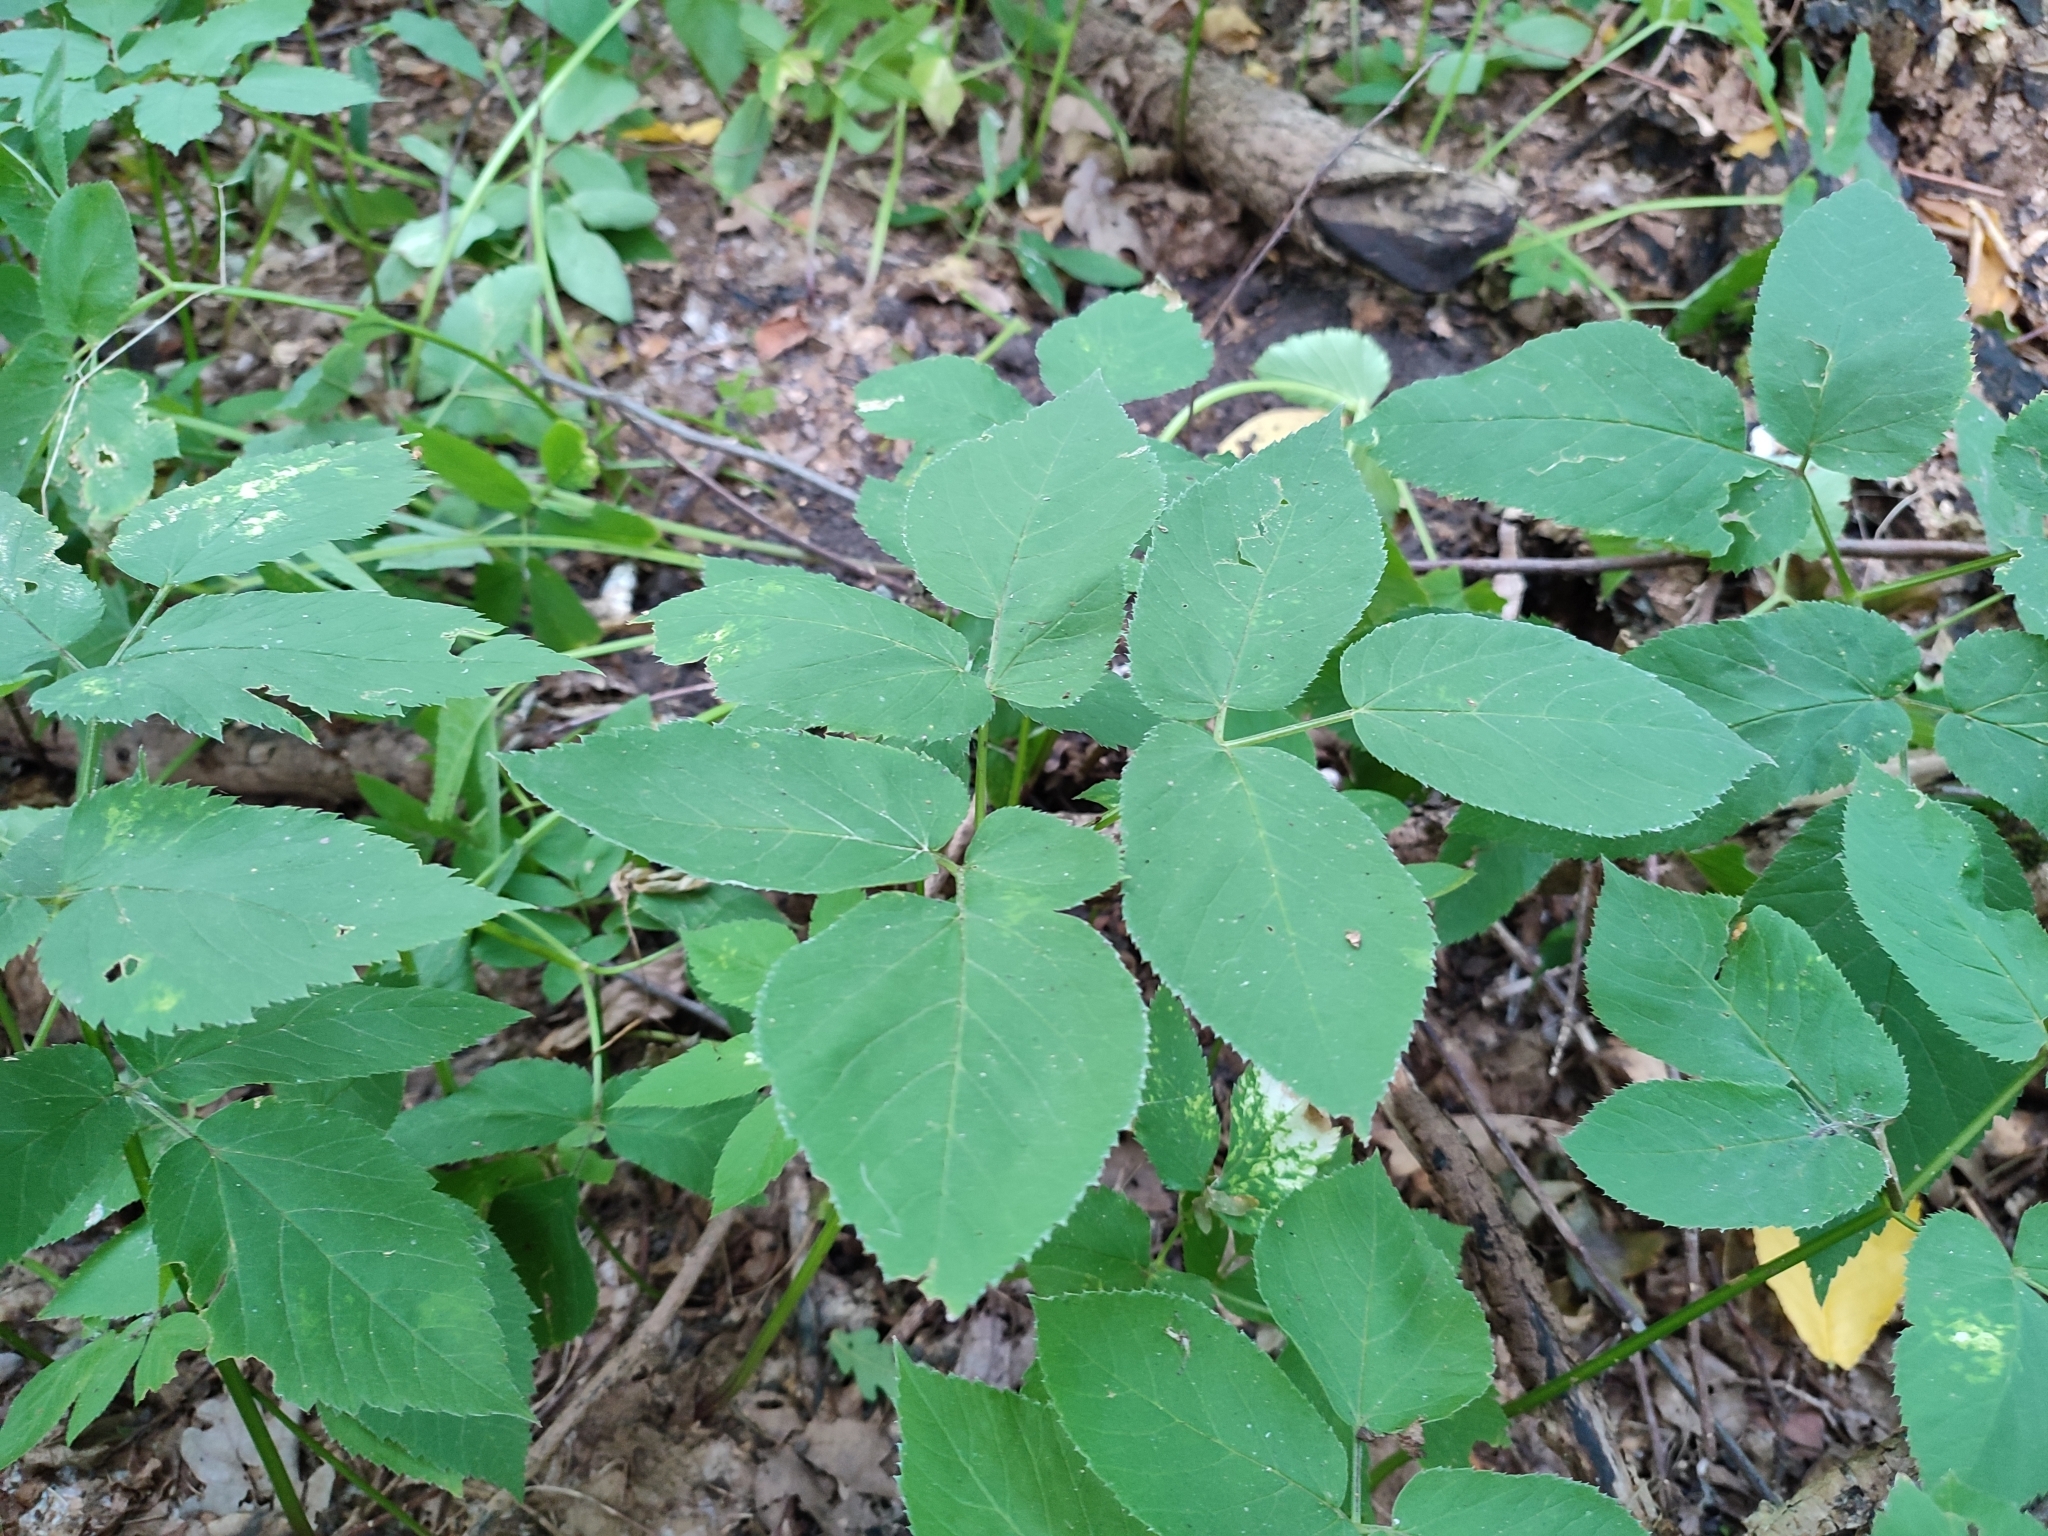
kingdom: Plantae
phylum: Tracheophyta
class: Magnoliopsida
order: Apiales
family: Apiaceae
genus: Aegopodium
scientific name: Aegopodium podagraria
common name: Ground-elder
